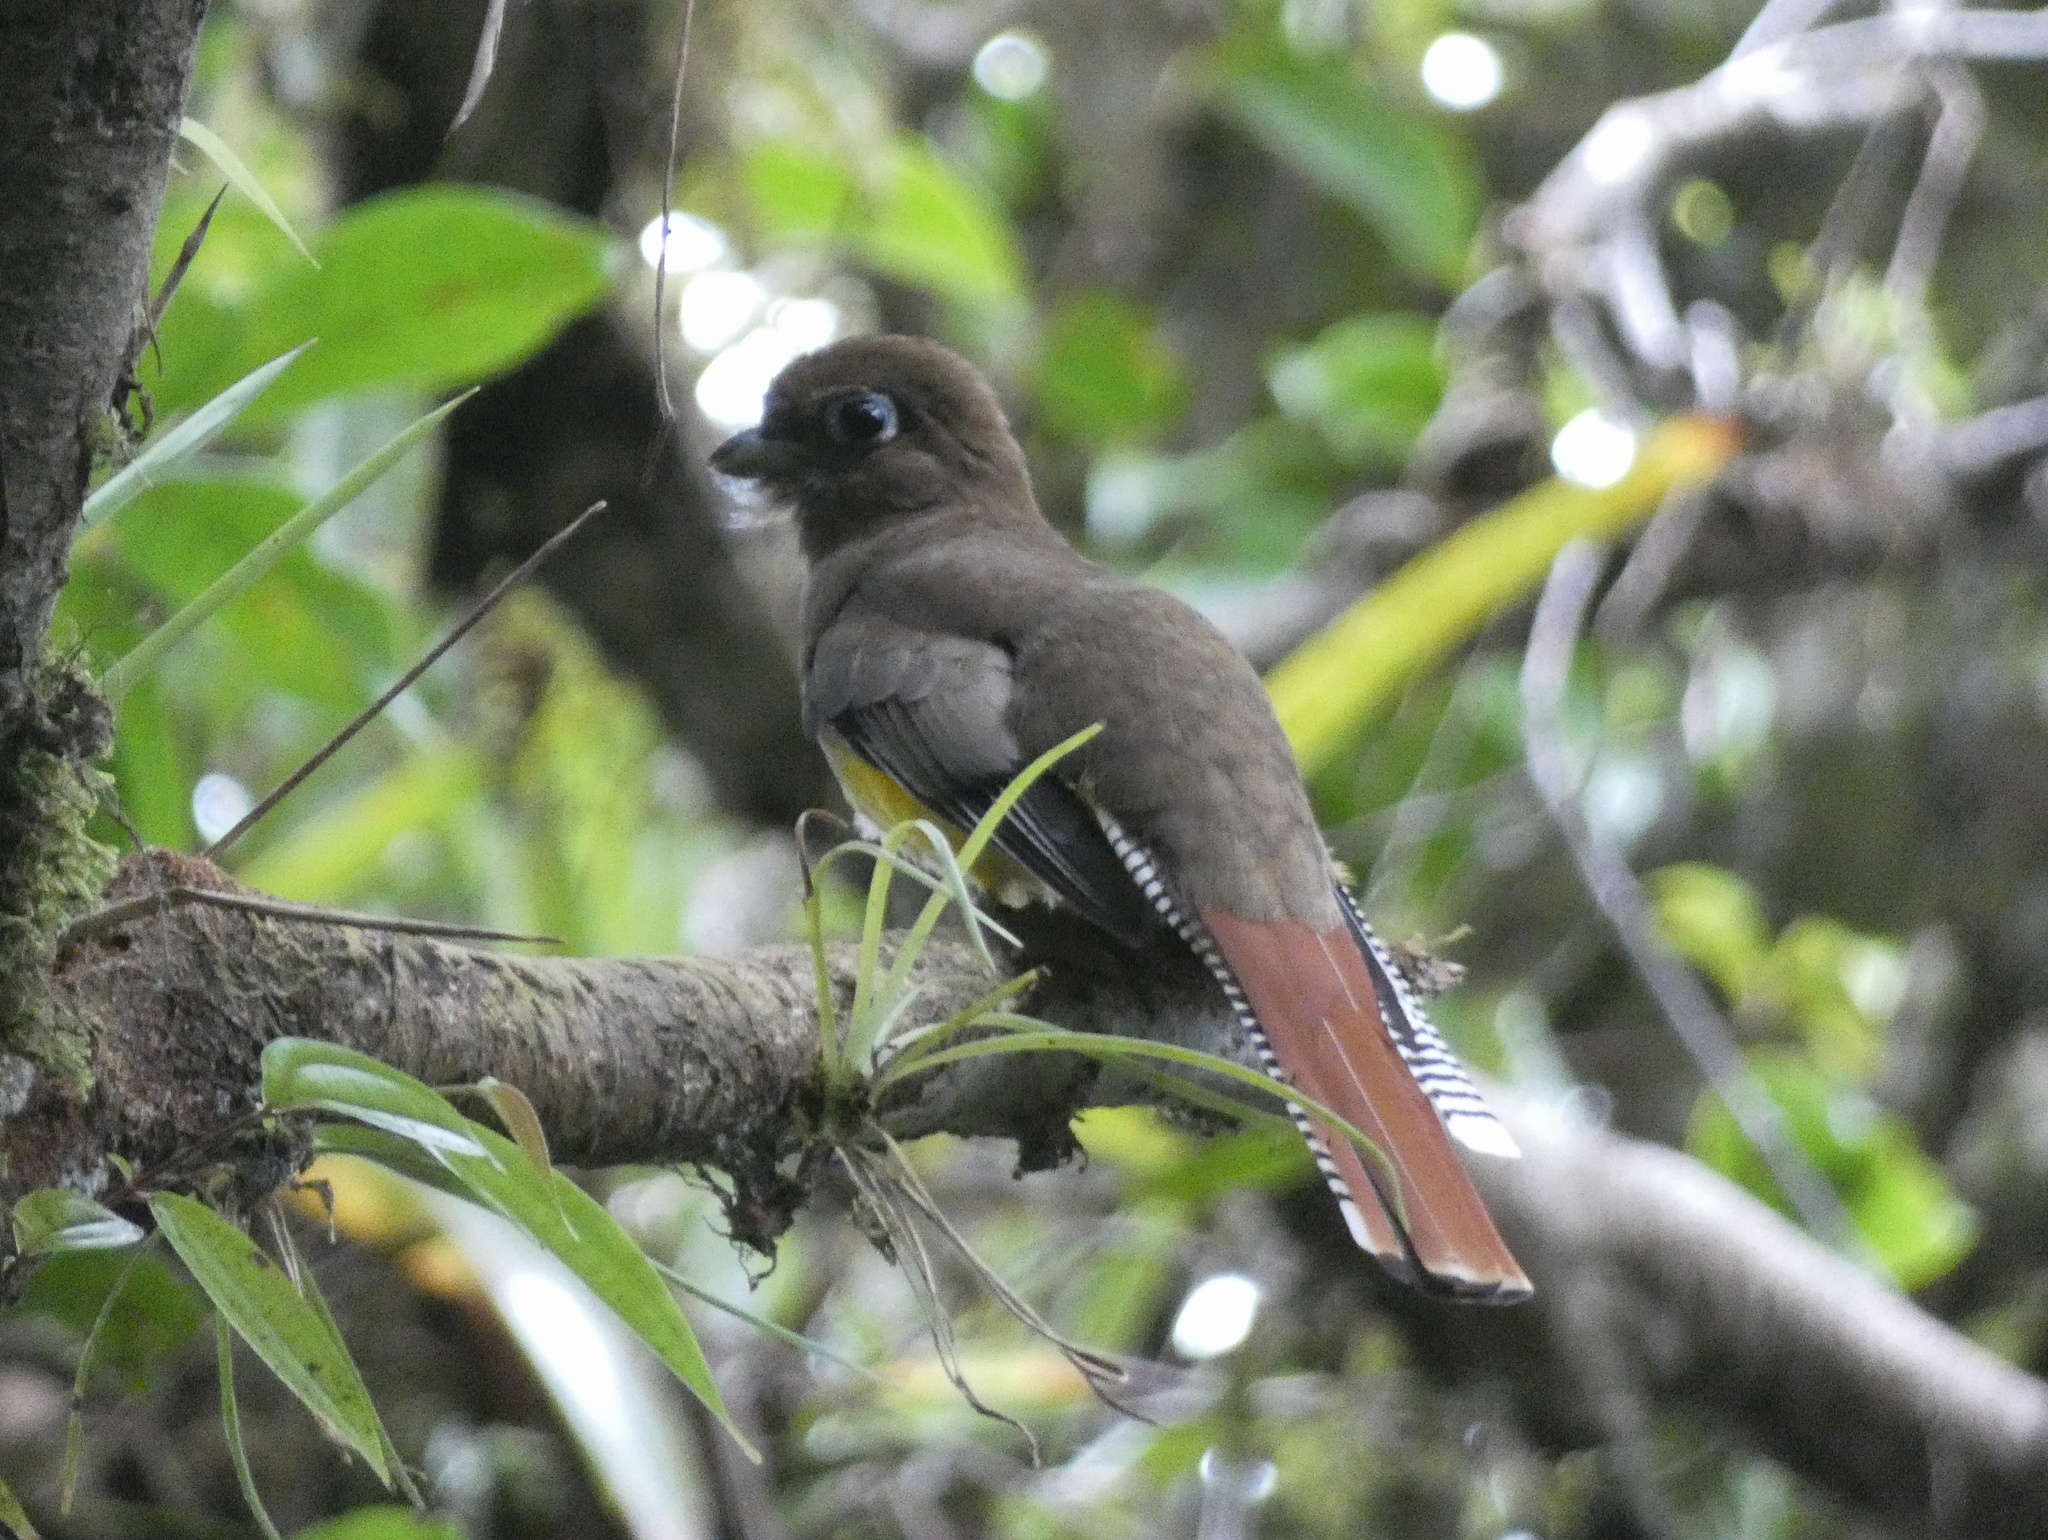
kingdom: Animalia
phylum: Chordata
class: Aves
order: Trogoniformes
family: Trogonidae
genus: Trogon
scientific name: Trogon rufus
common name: Black-throated trogon
